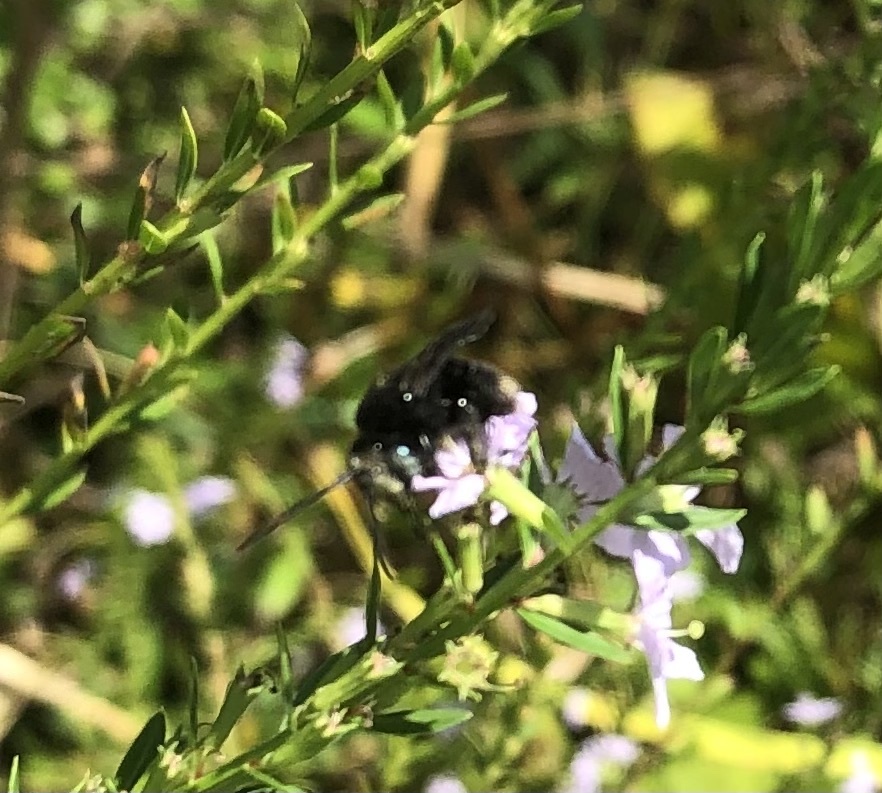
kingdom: Animalia
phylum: Arthropoda
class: Insecta
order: Hymenoptera
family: Apidae
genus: Melissodes
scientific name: Melissodes bimaculatus
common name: Two-spotted long-horned bee
